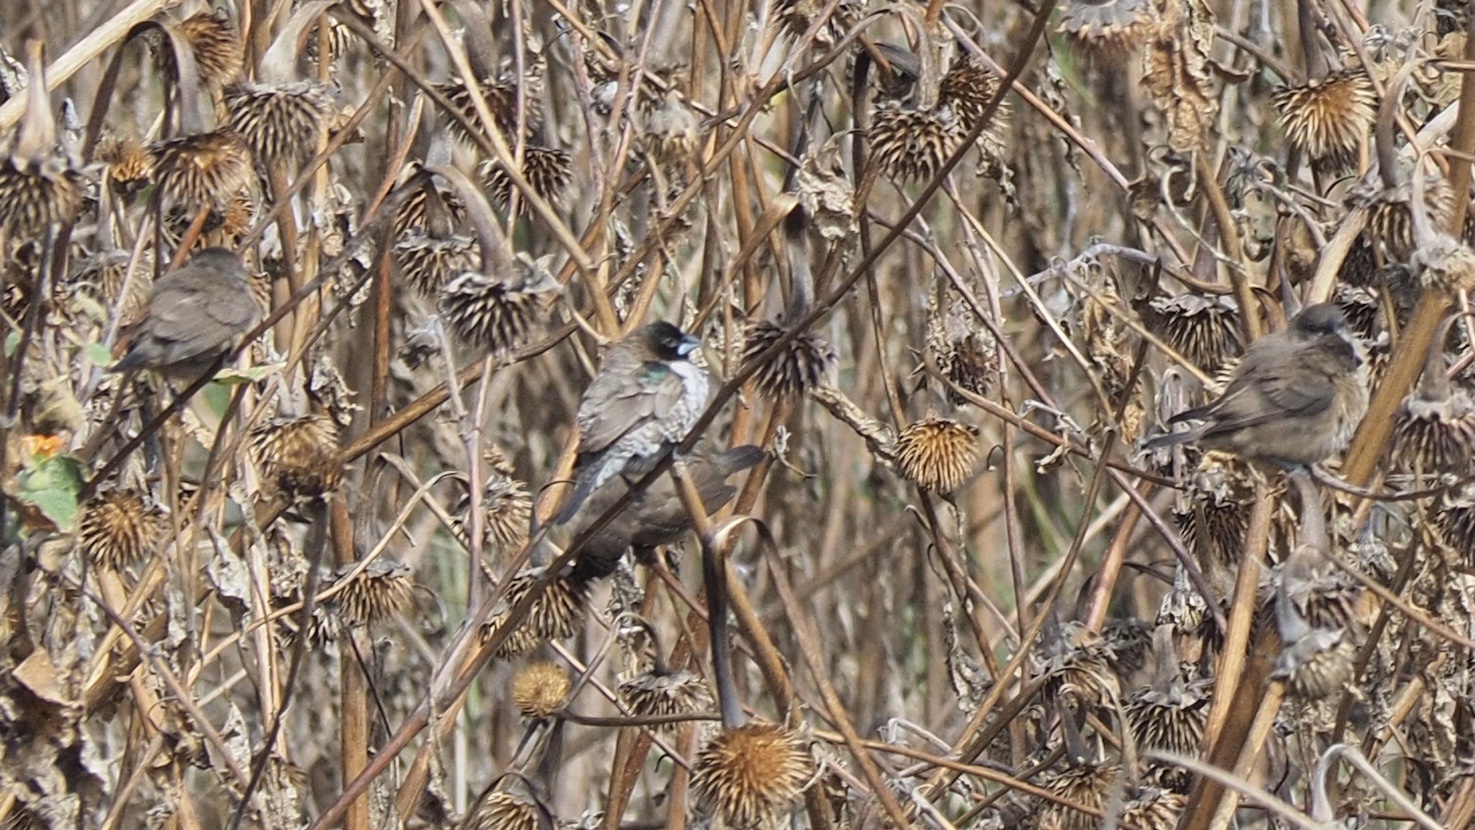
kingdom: Animalia
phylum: Chordata
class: Aves
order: Passeriformes
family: Estrildidae
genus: Lonchura
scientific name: Lonchura cucullata
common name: Bronze mannikin
